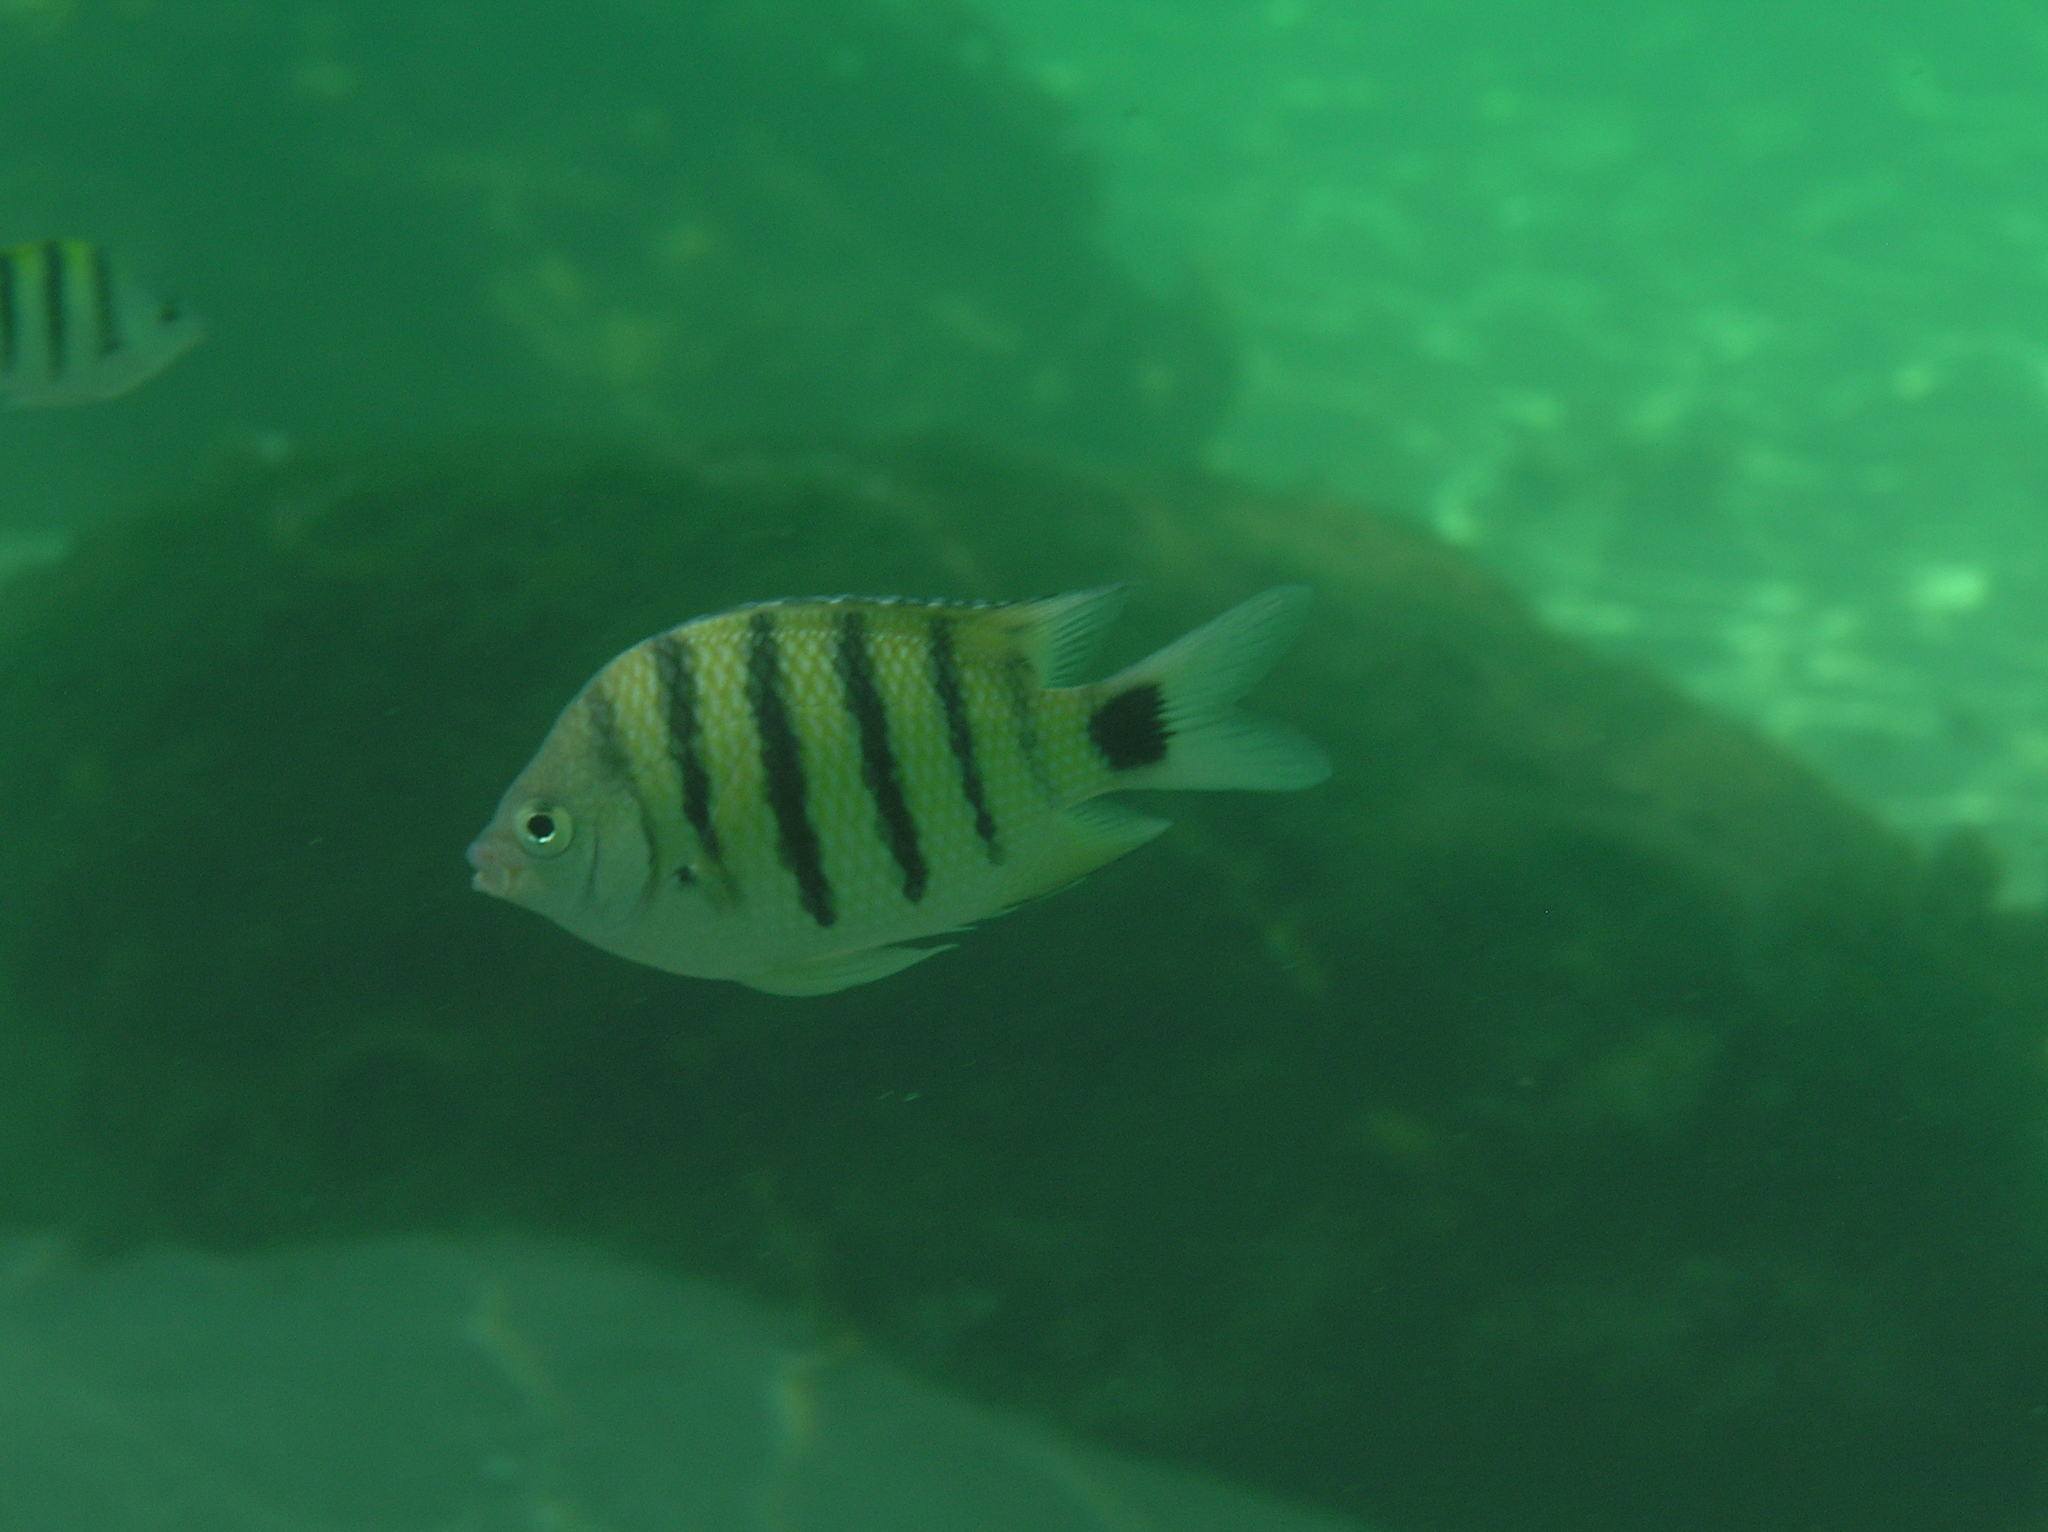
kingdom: Animalia
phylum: Chordata
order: Perciformes
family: Pomacentridae
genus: Abudefduf
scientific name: Abudefduf lorenzi
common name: Black-tail sergeant
